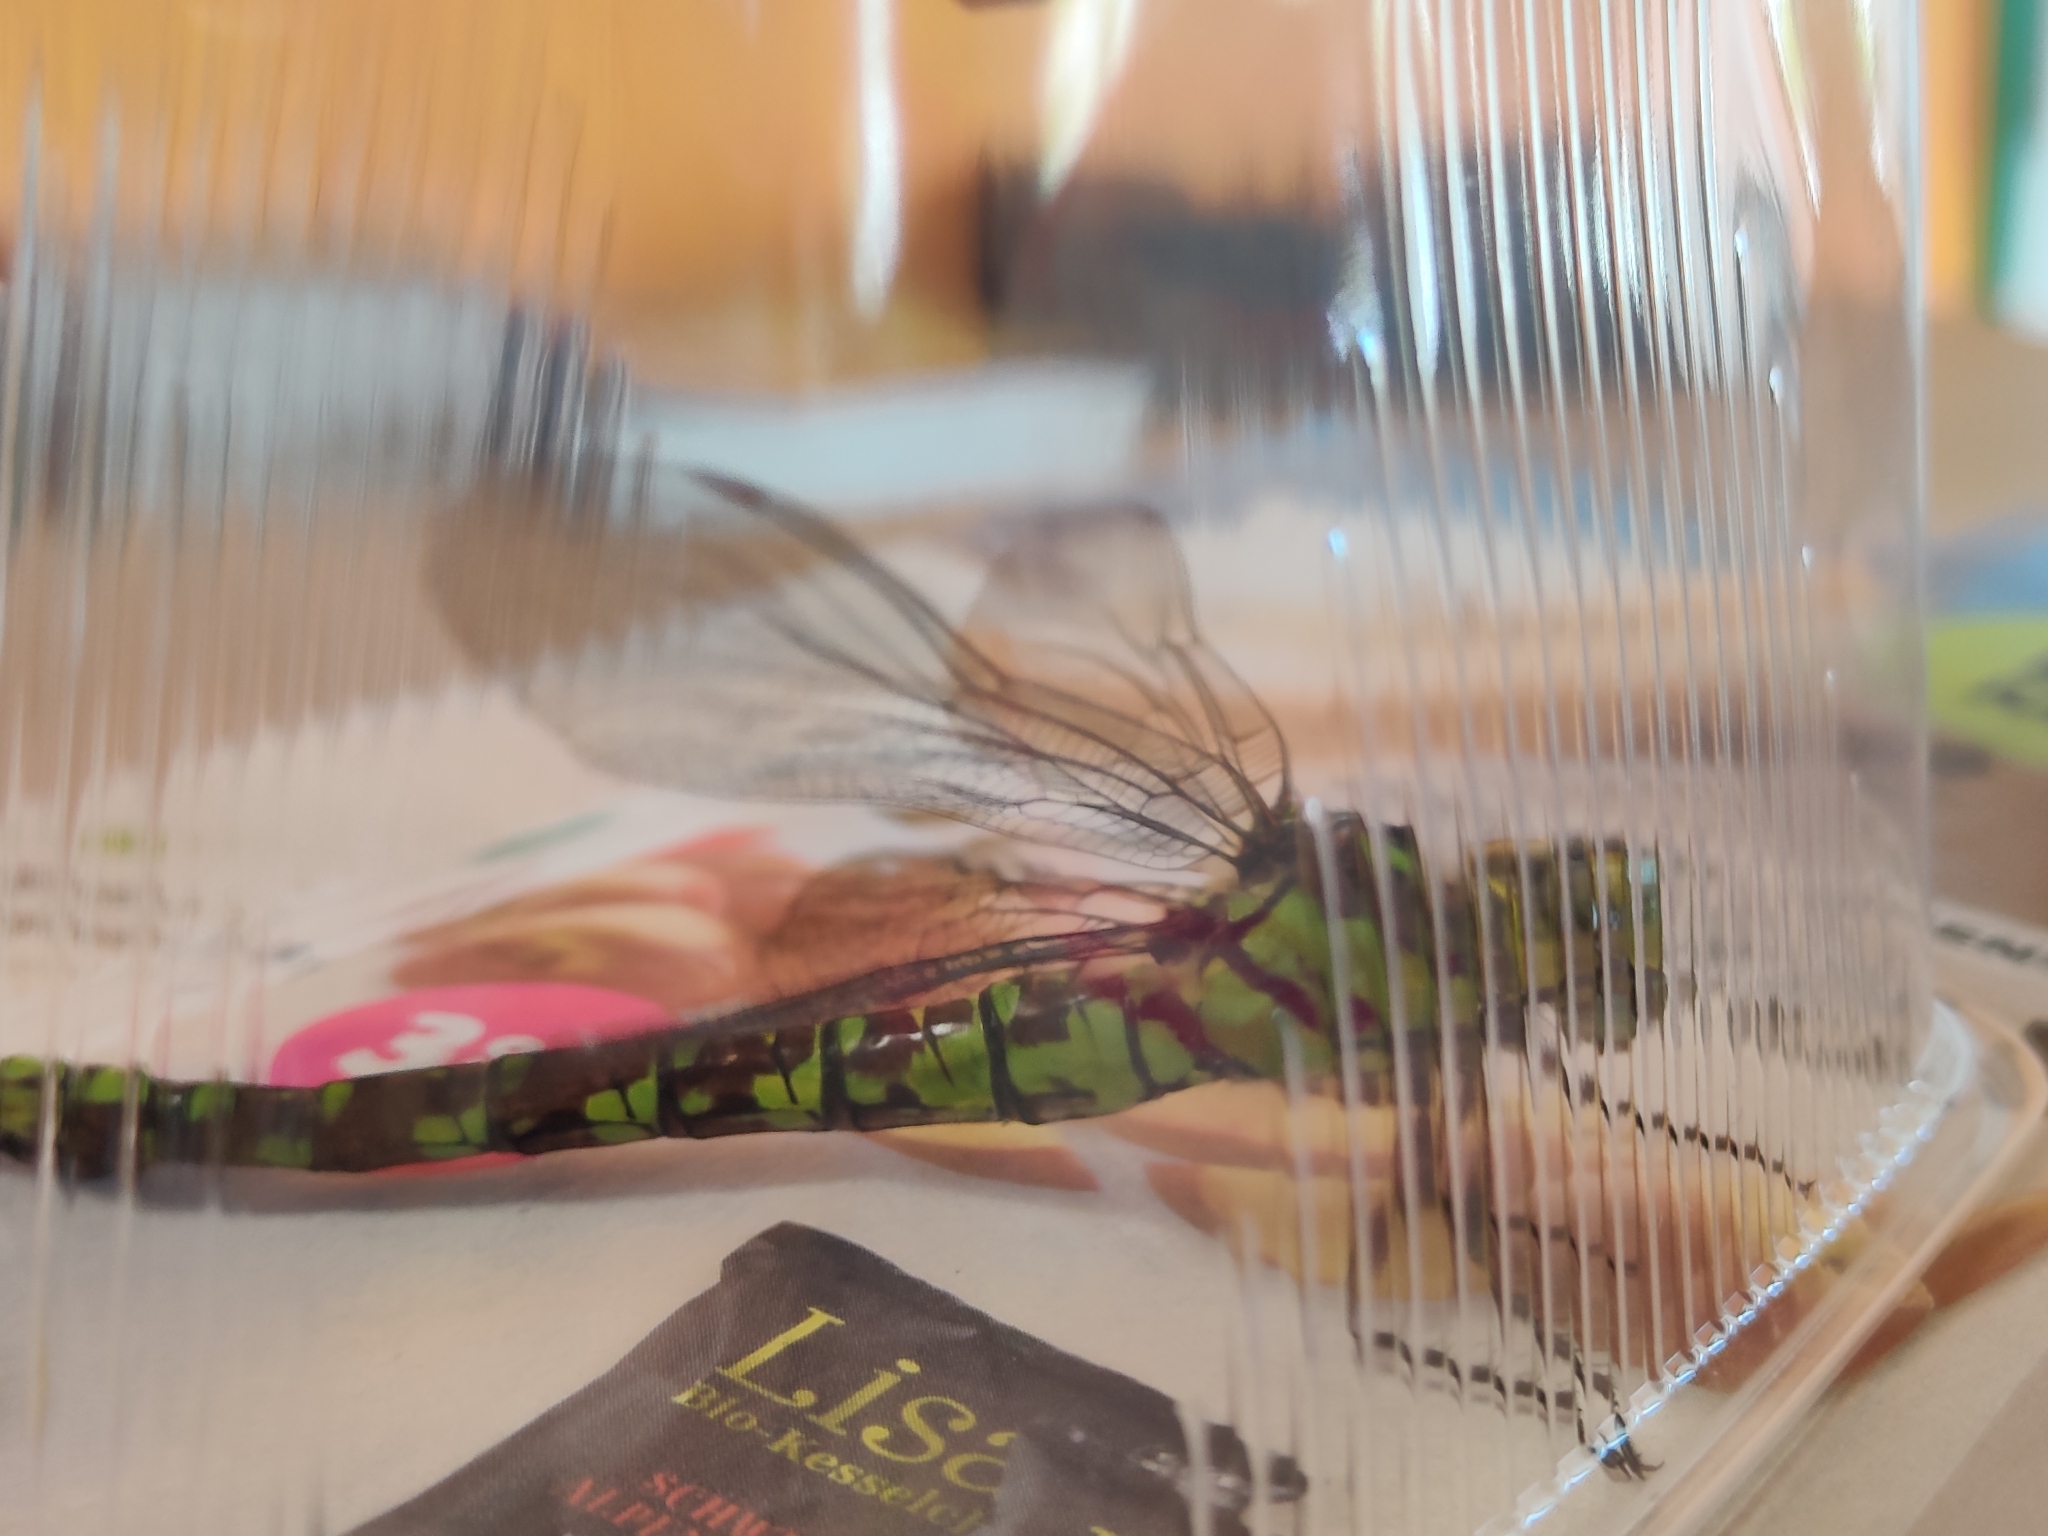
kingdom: Animalia
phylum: Arthropoda
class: Insecta
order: Odonata
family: Aeshnidae
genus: Aeshna
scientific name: Aeshna cyanea
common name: Southern hawker
